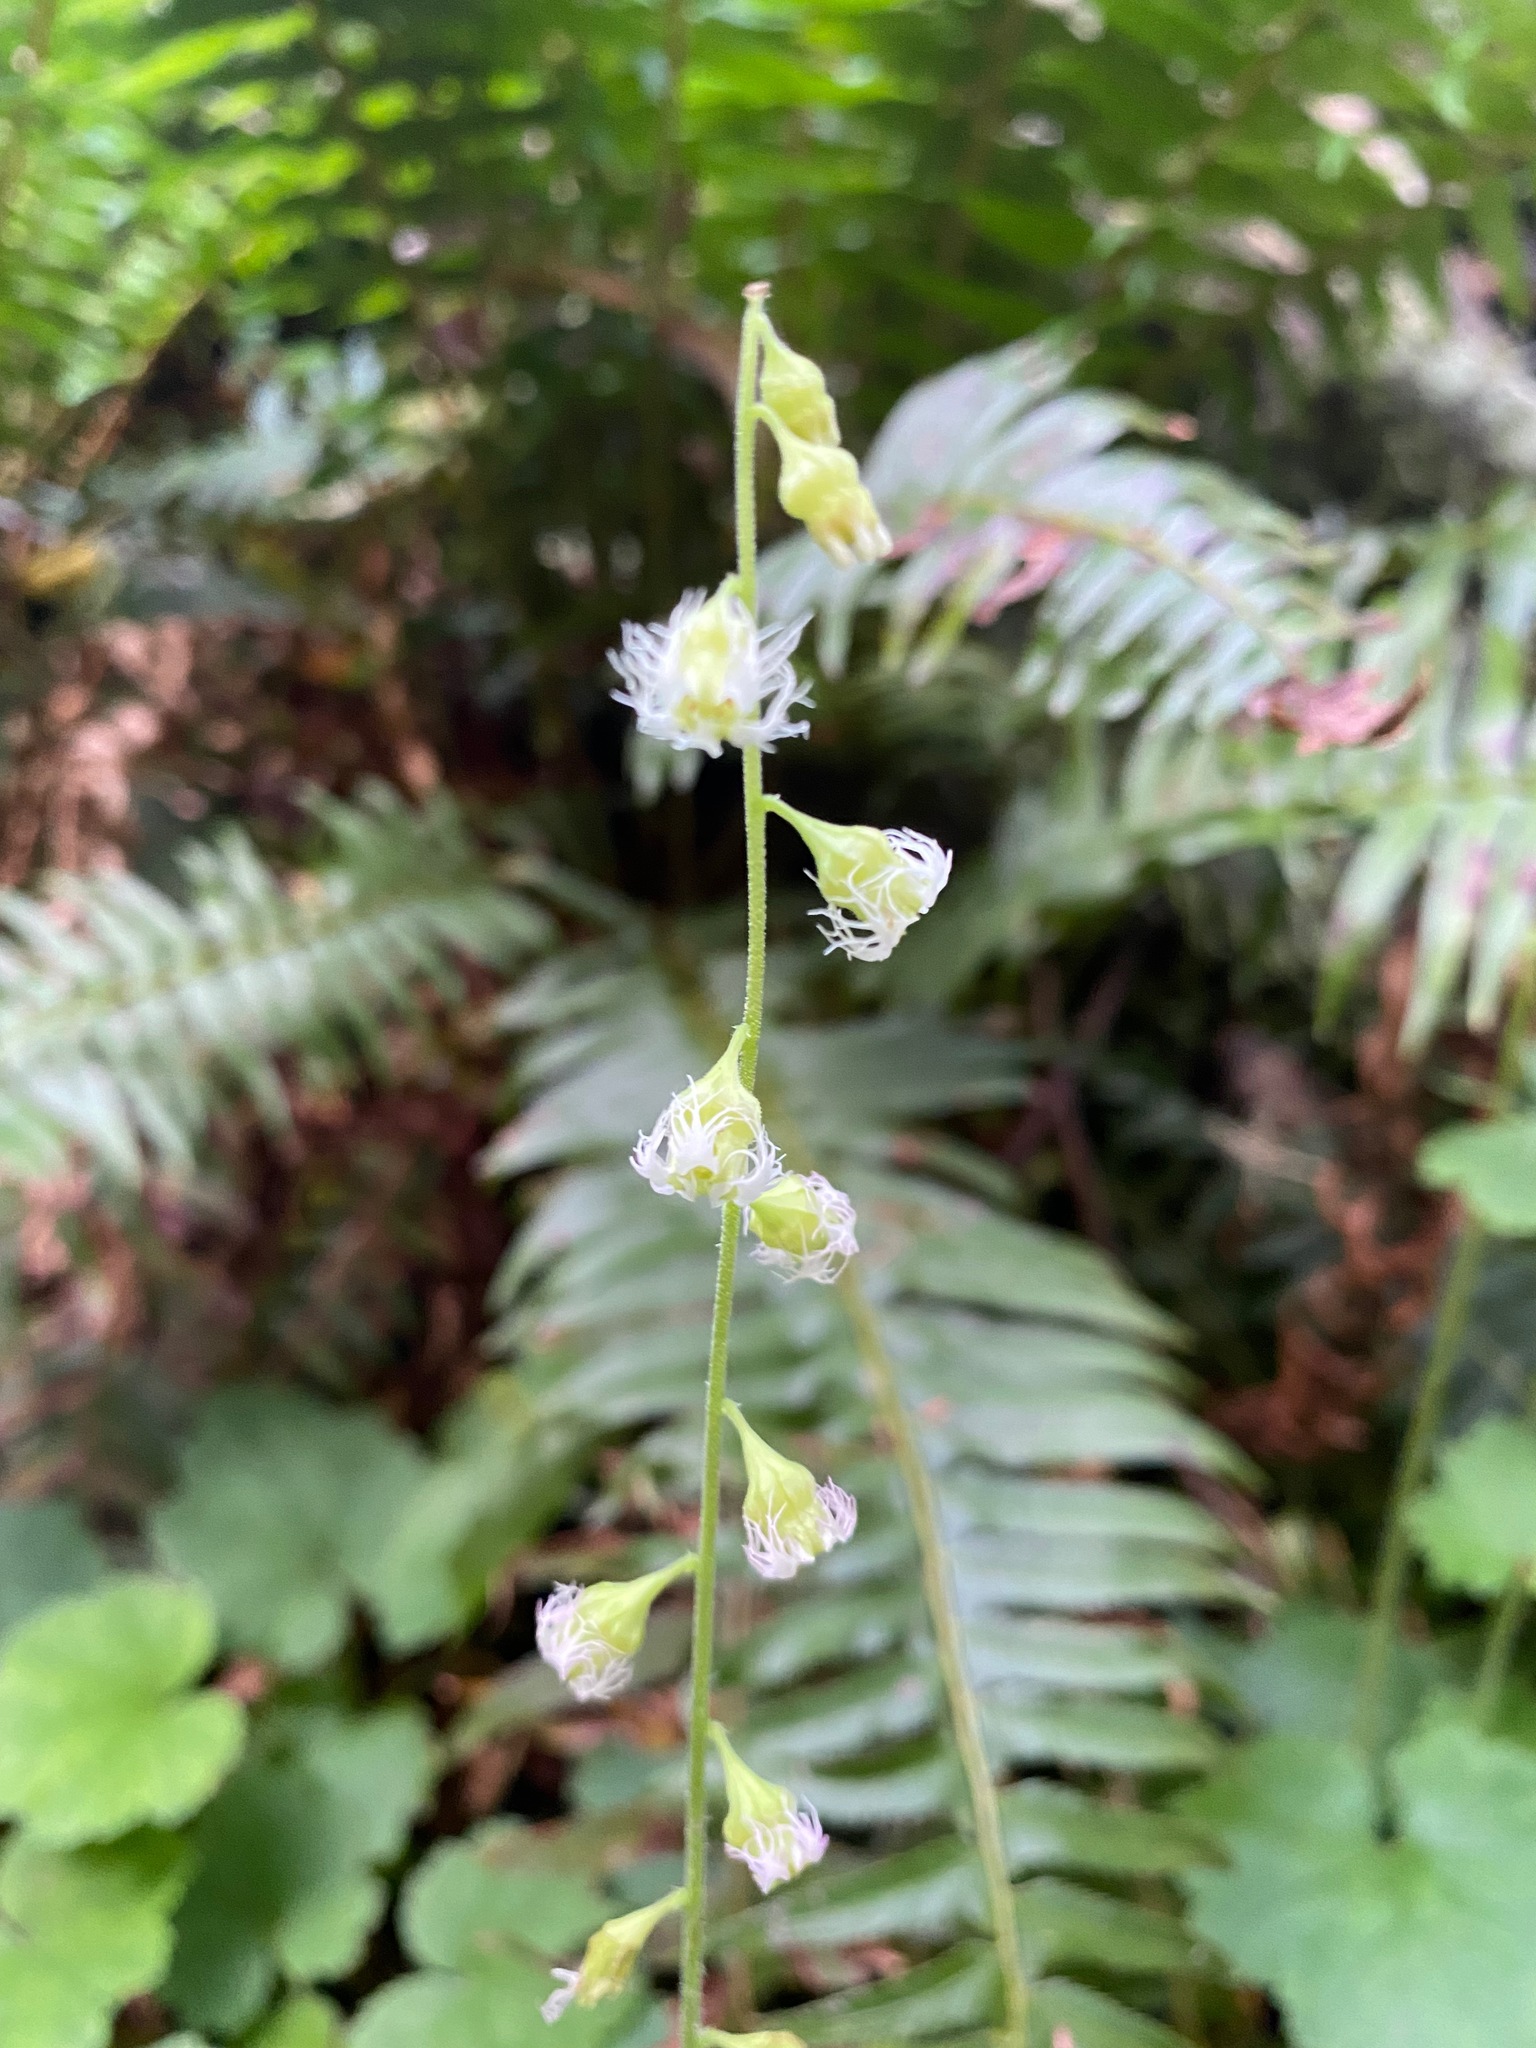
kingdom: Plantae
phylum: Tracheophyta
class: Magnoliopsida
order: Saxifragales
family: Saxifragaceae
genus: Tellima
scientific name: Tellima grandiflora
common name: Fringecups
